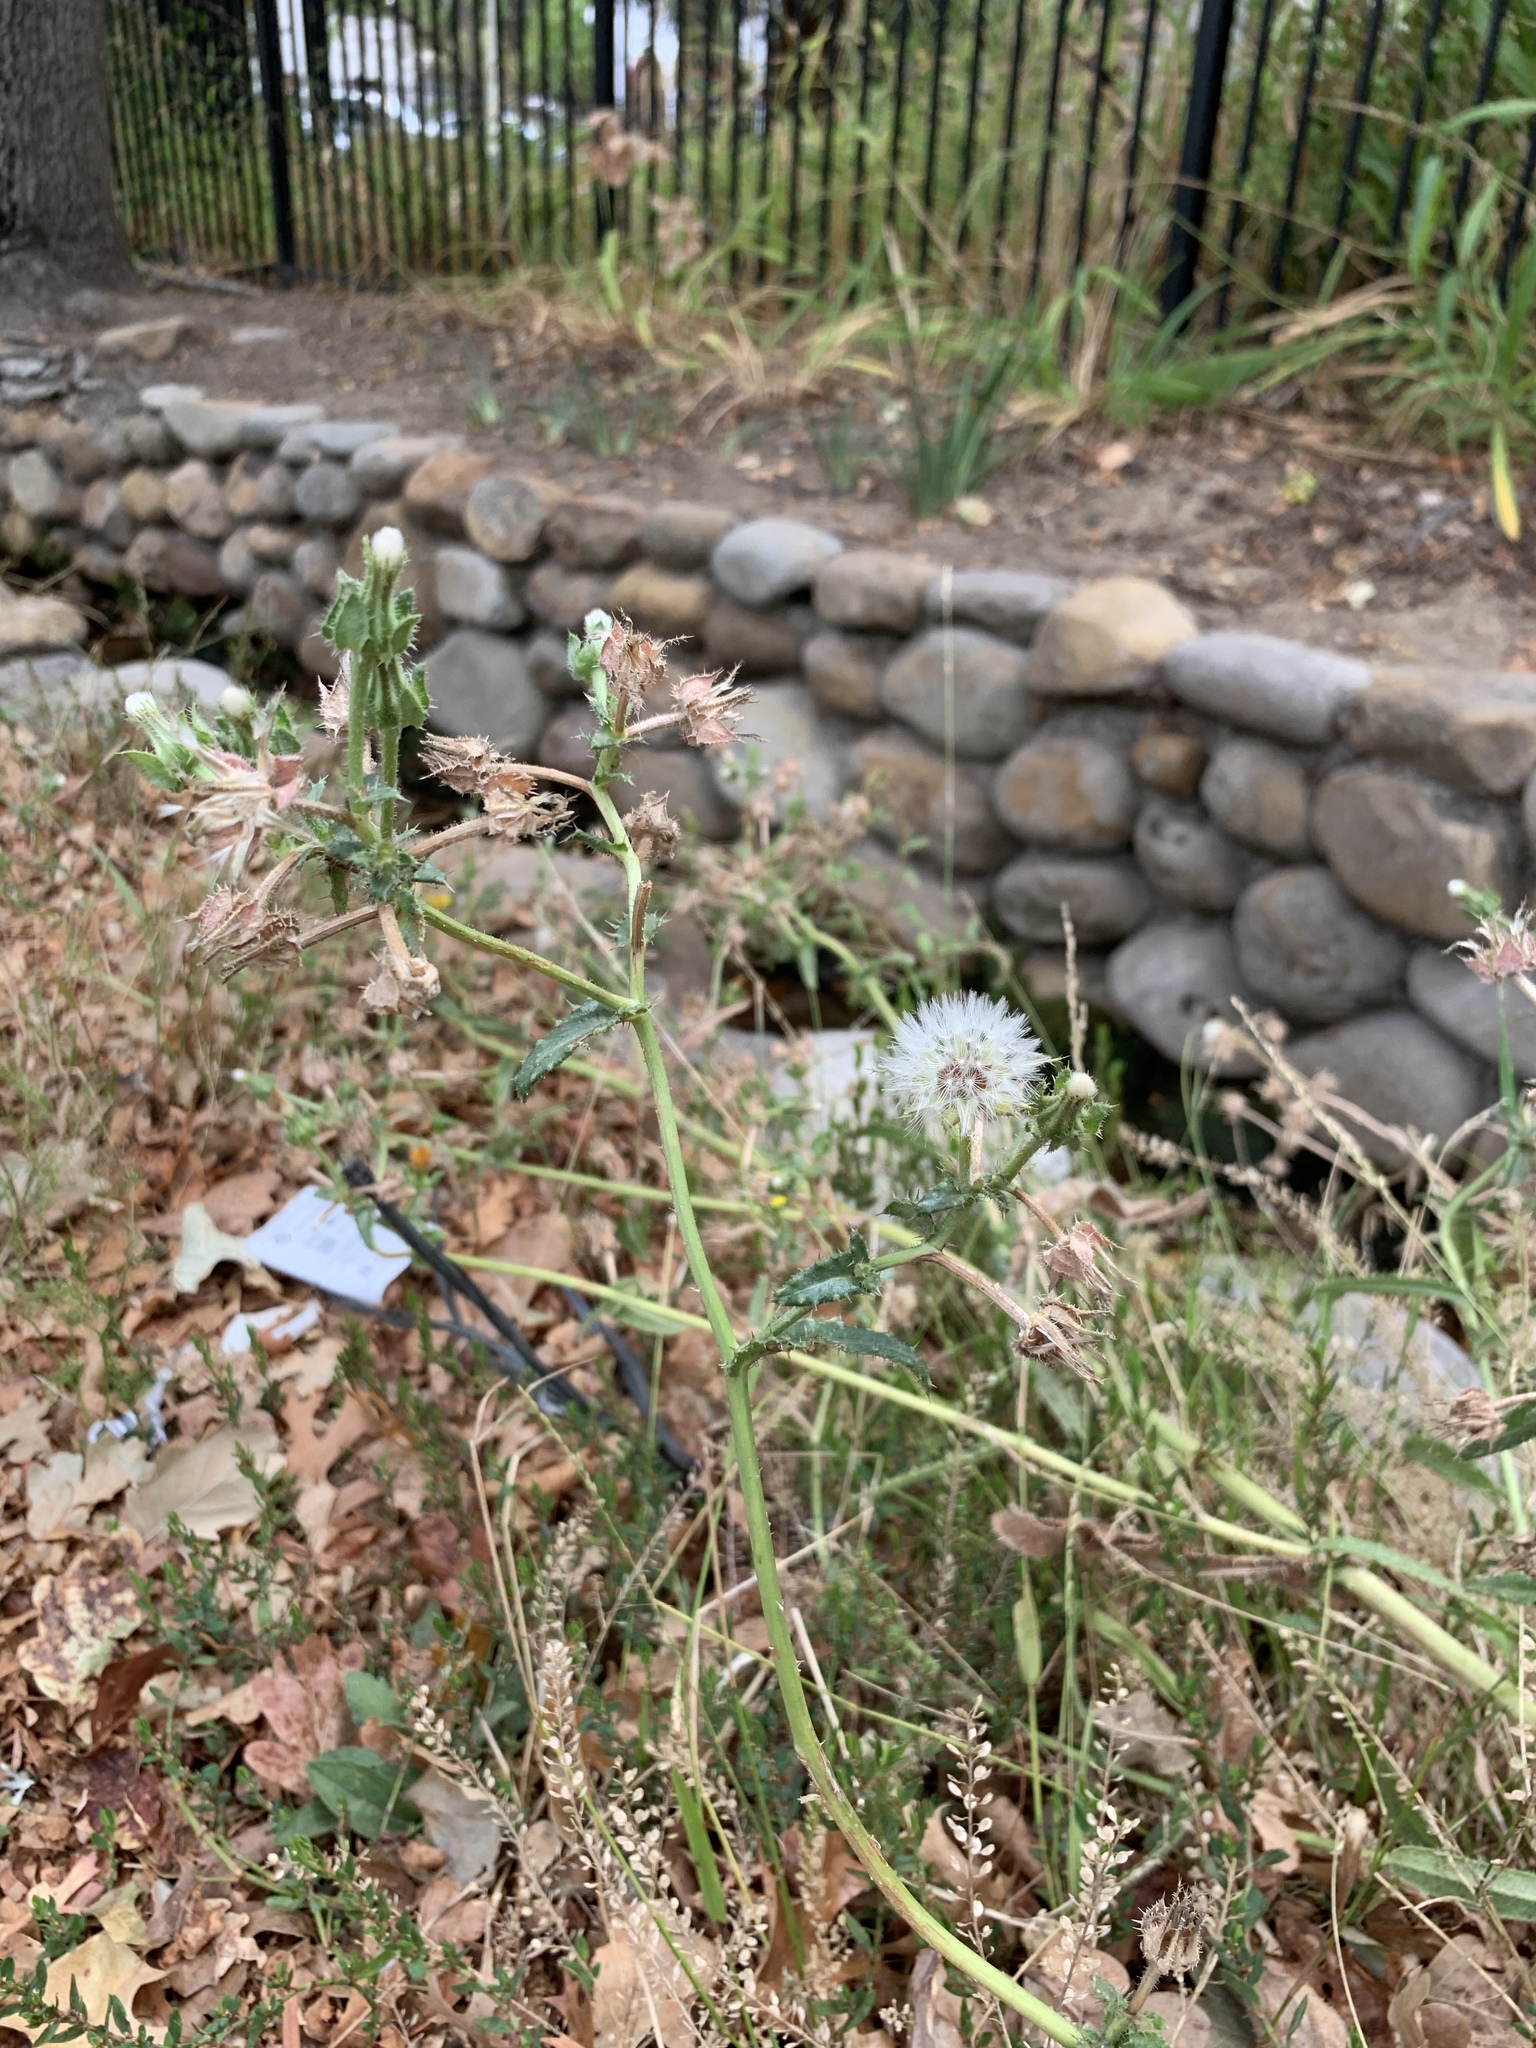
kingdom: Plantae
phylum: Tracheophyta
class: Magnoliopsida
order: Asterales
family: Asteraceae
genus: Helminthotheca
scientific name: Helminthotheca echioides
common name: Ox-tongue
